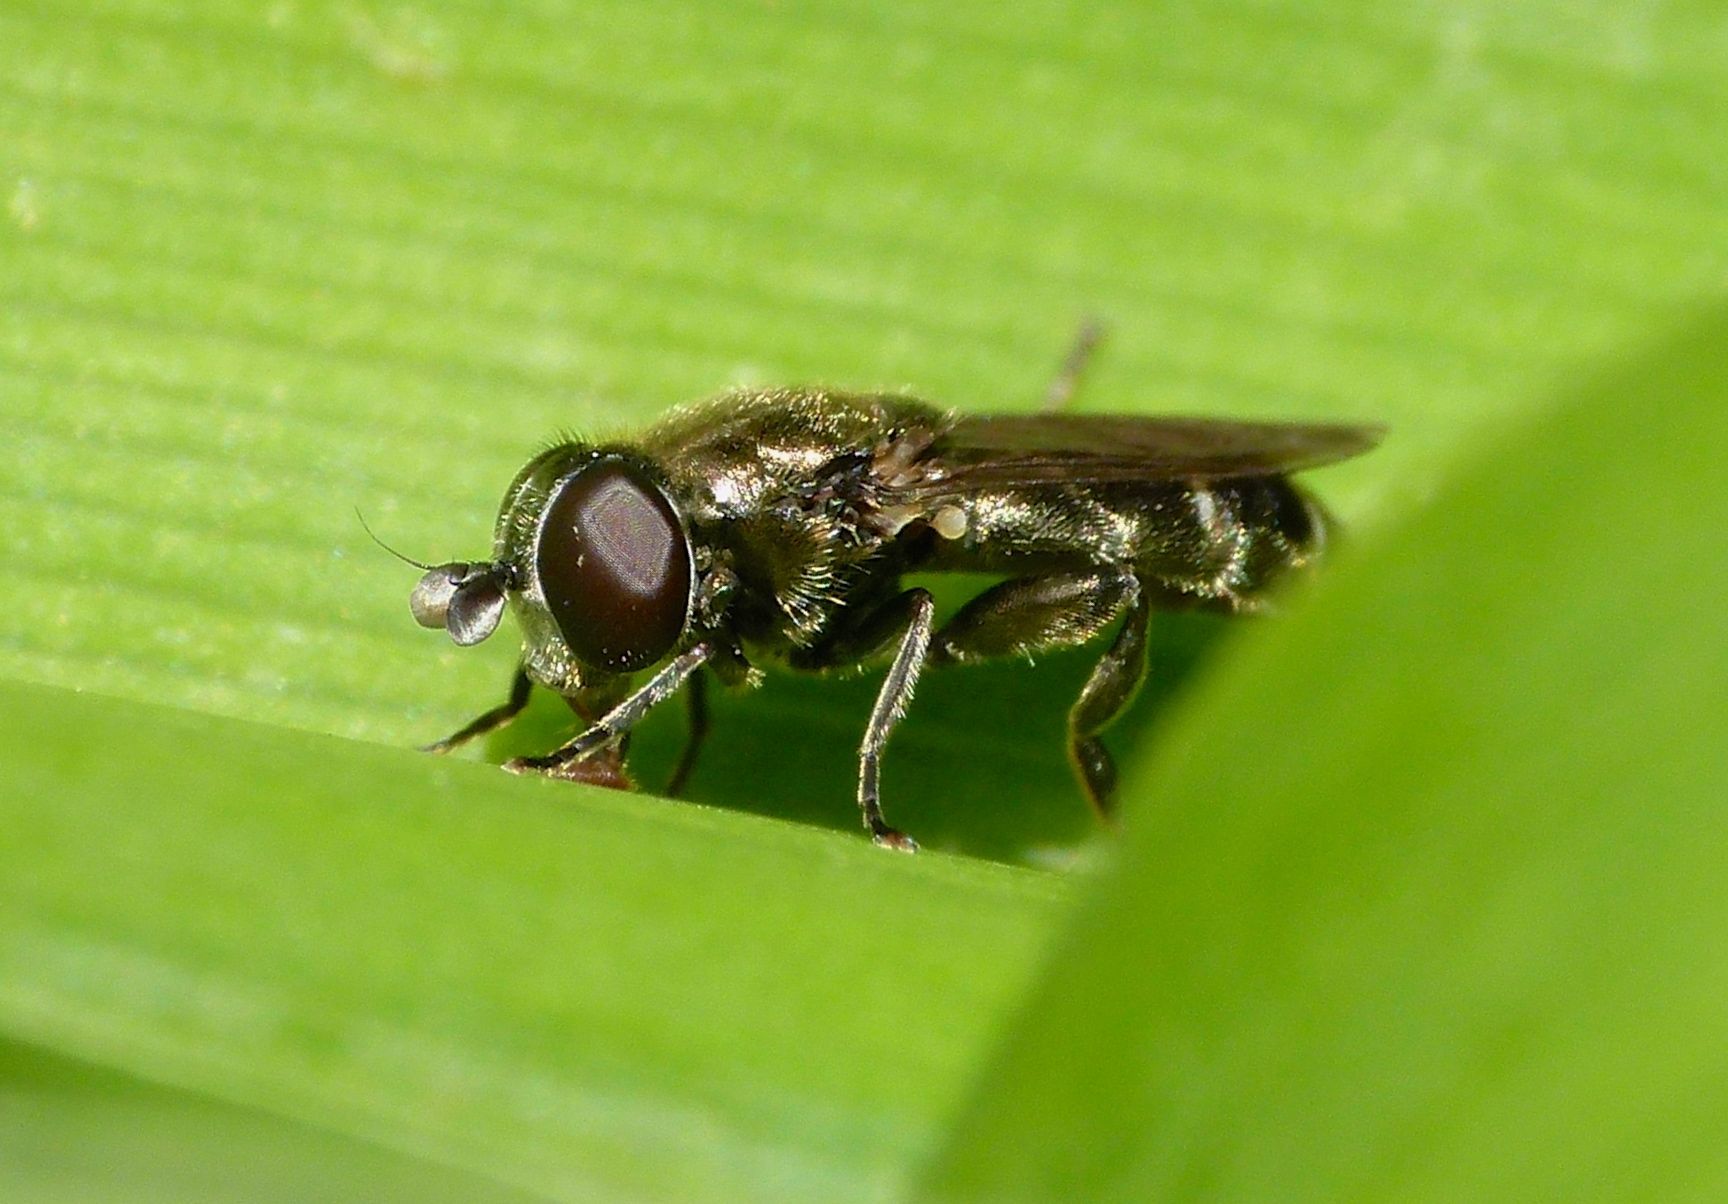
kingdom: Animalia
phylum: Arthropoda
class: Insecta
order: Diptera
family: Syrphidae
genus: Eumerus
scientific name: Eumerus
